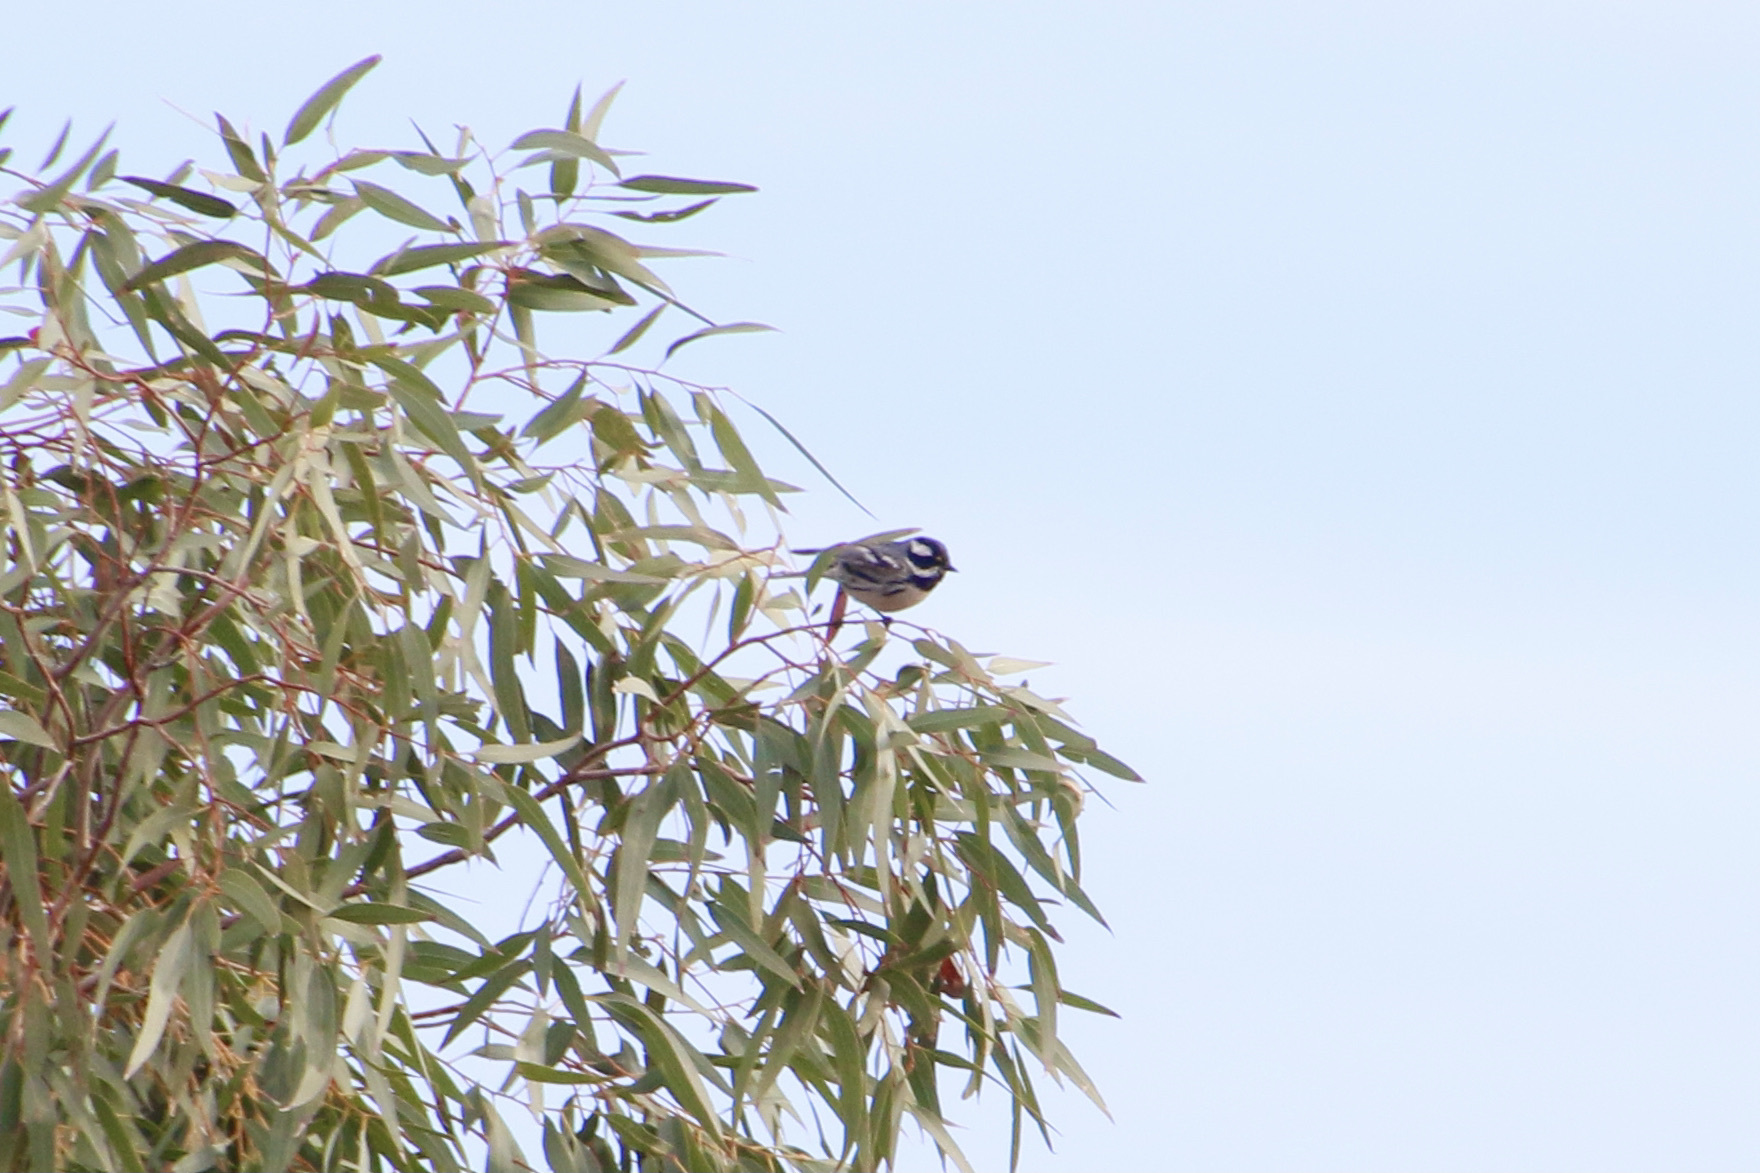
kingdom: Animalia
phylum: Chordata
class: Aves
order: Passeriformes
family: Parulidae
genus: Setophaga
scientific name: Setophaga nigrescens
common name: Black-throated gray warbler
